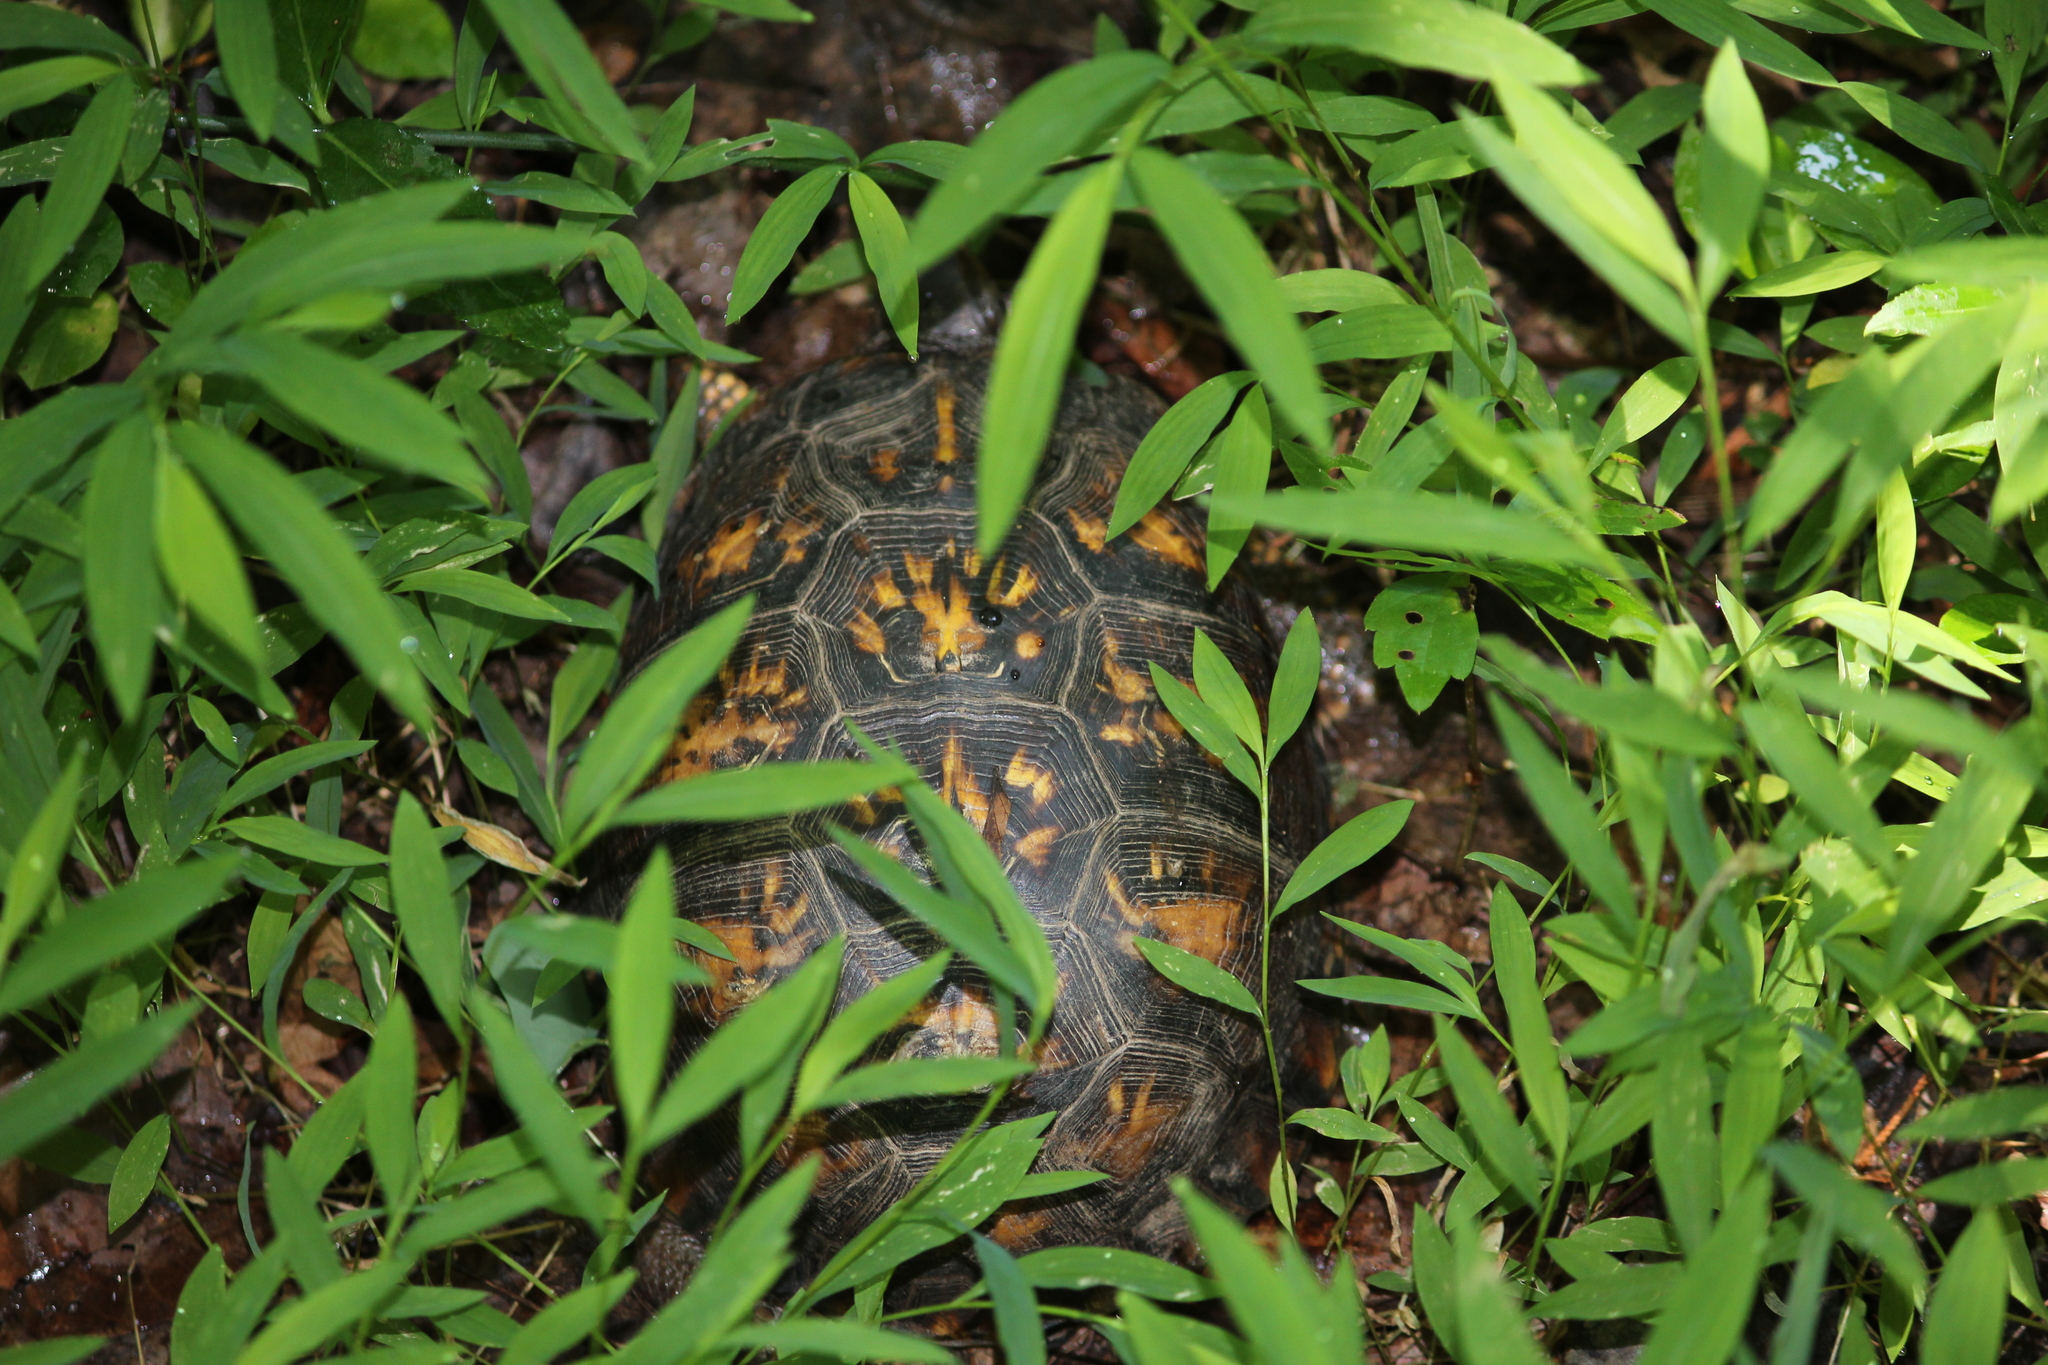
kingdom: Animalia
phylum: Chordata
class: Testudines
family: Emydidae
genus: Terrapene
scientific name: Terrapene carolina
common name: Common box turtle
